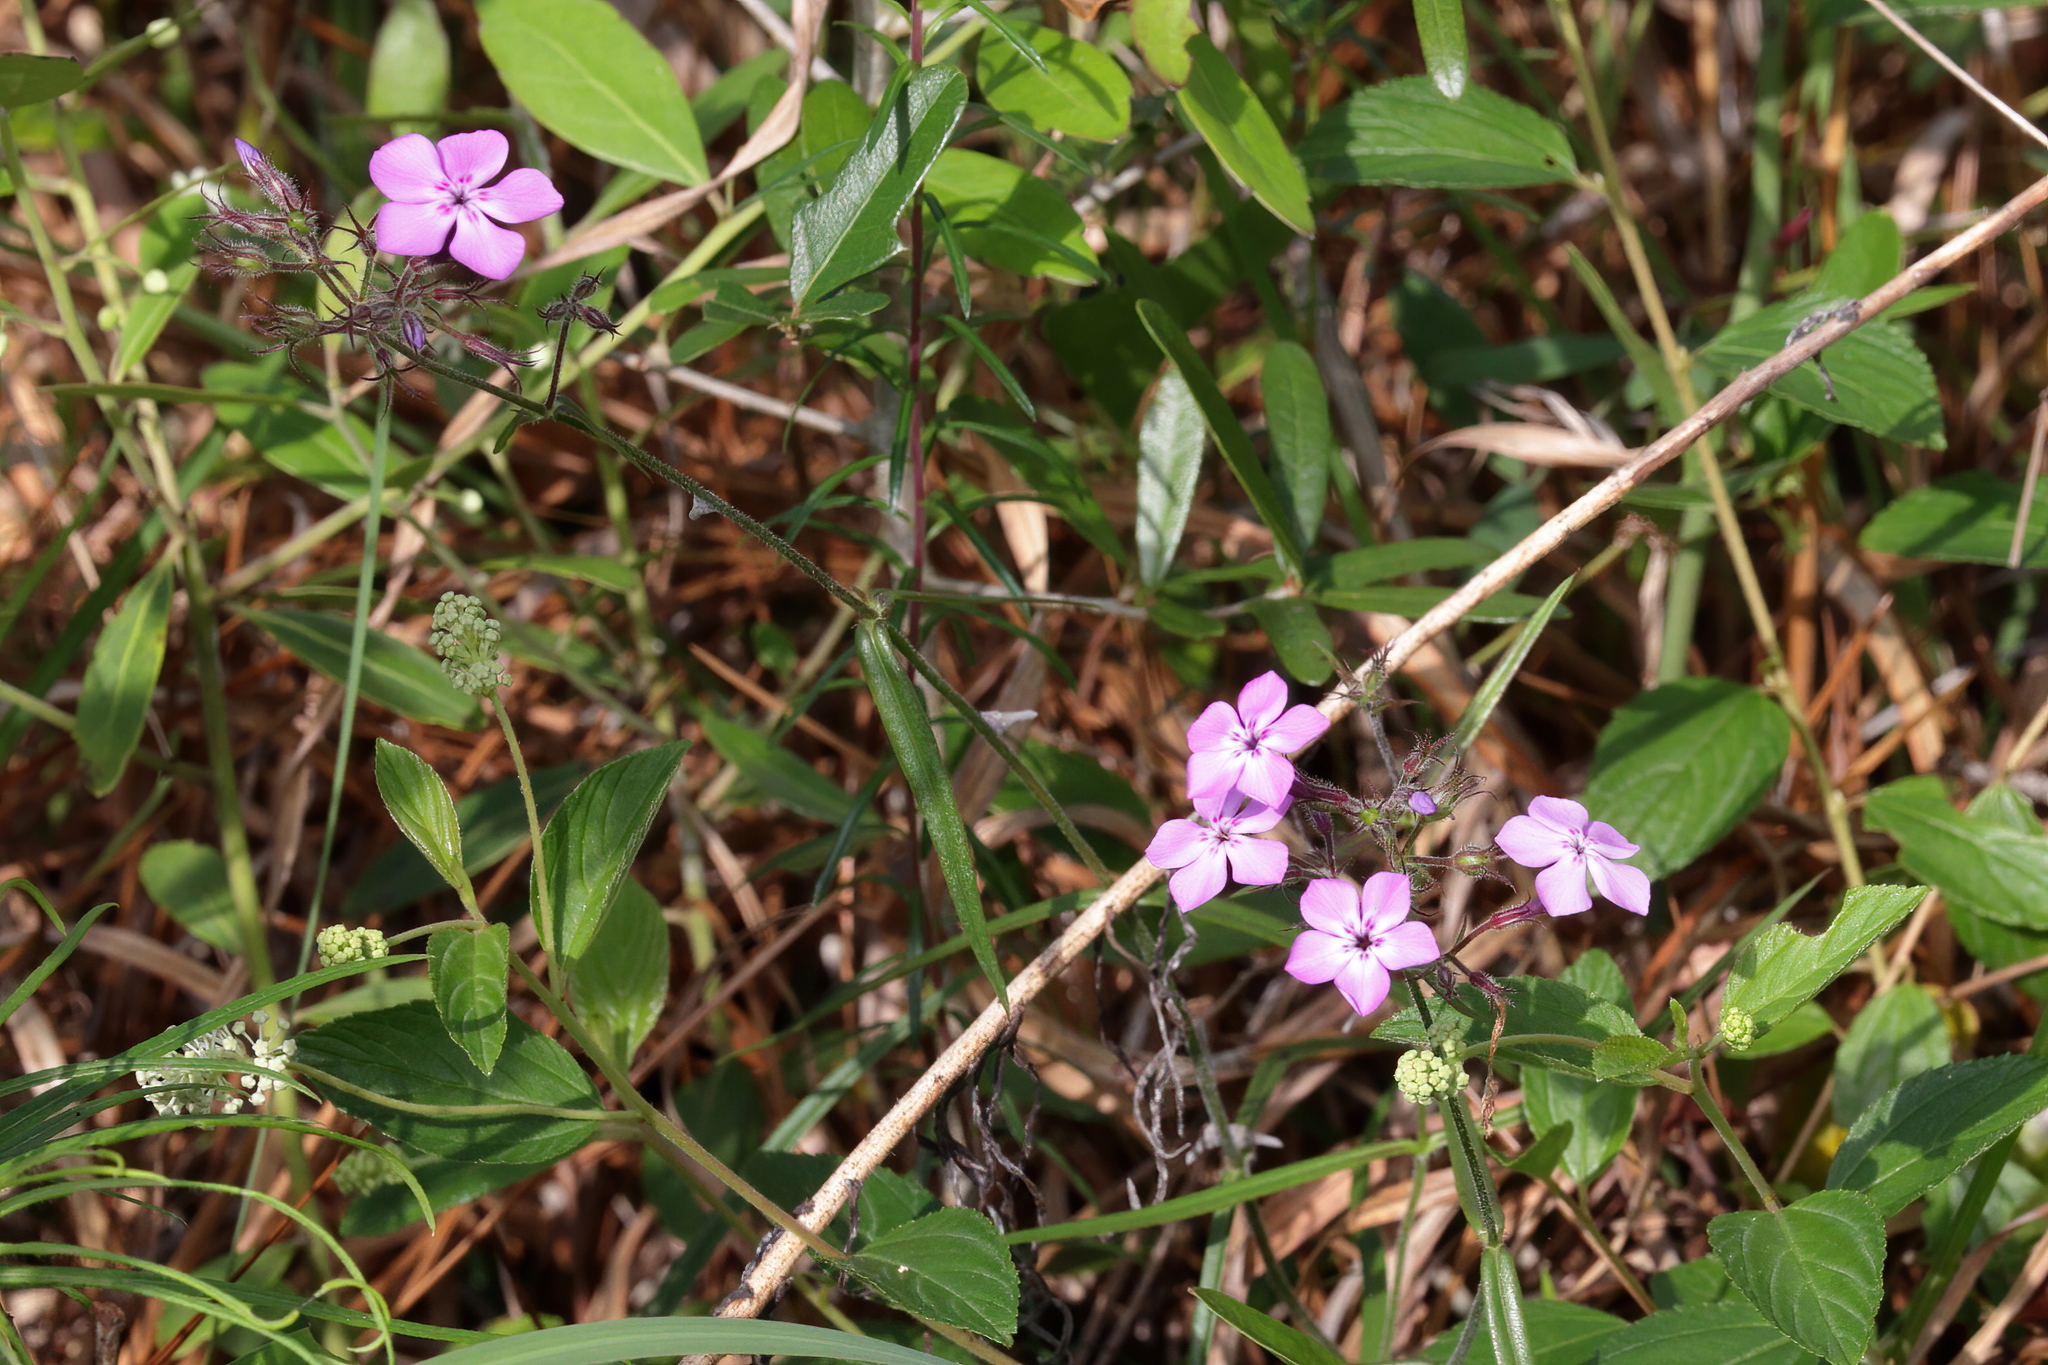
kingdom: Plantae
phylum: Tracheophyta
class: Magnoliopsida
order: Ericales
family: Polemoniaceae
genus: Phlox
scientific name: Phlox pilosa
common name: Prairie phlox
